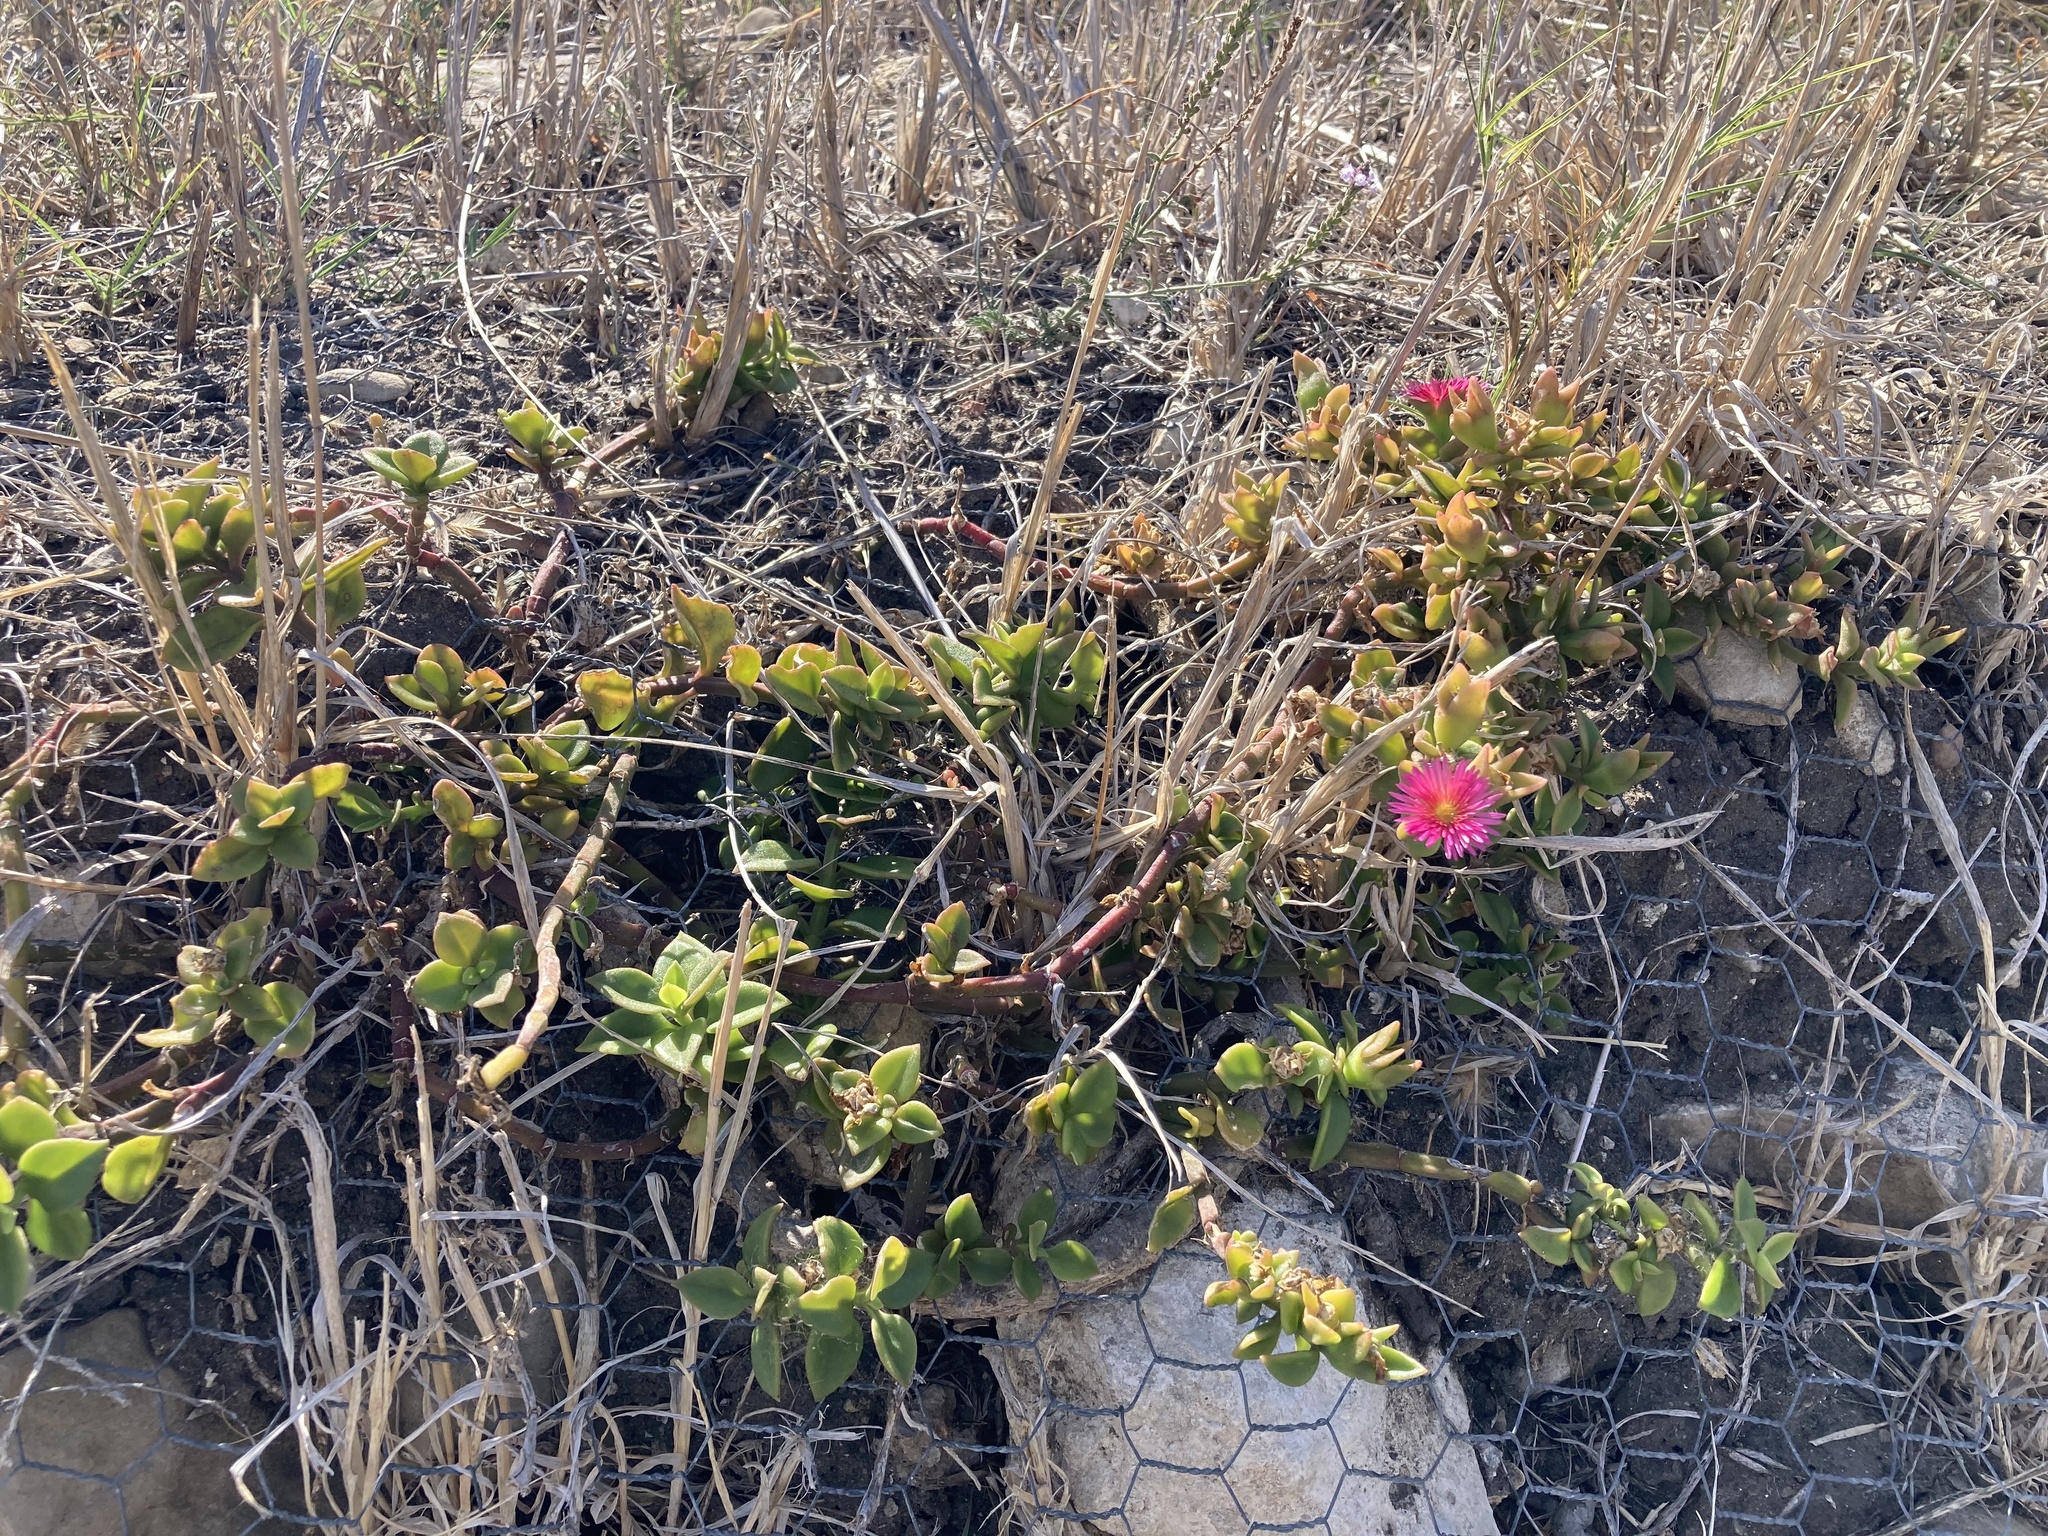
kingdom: Plantae
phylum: Tracheophyta
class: Magnoliopsida
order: Caryophyllales
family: Aizoaceae
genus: Mesembryanthemum
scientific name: Mesembryanthemum cordifolium
